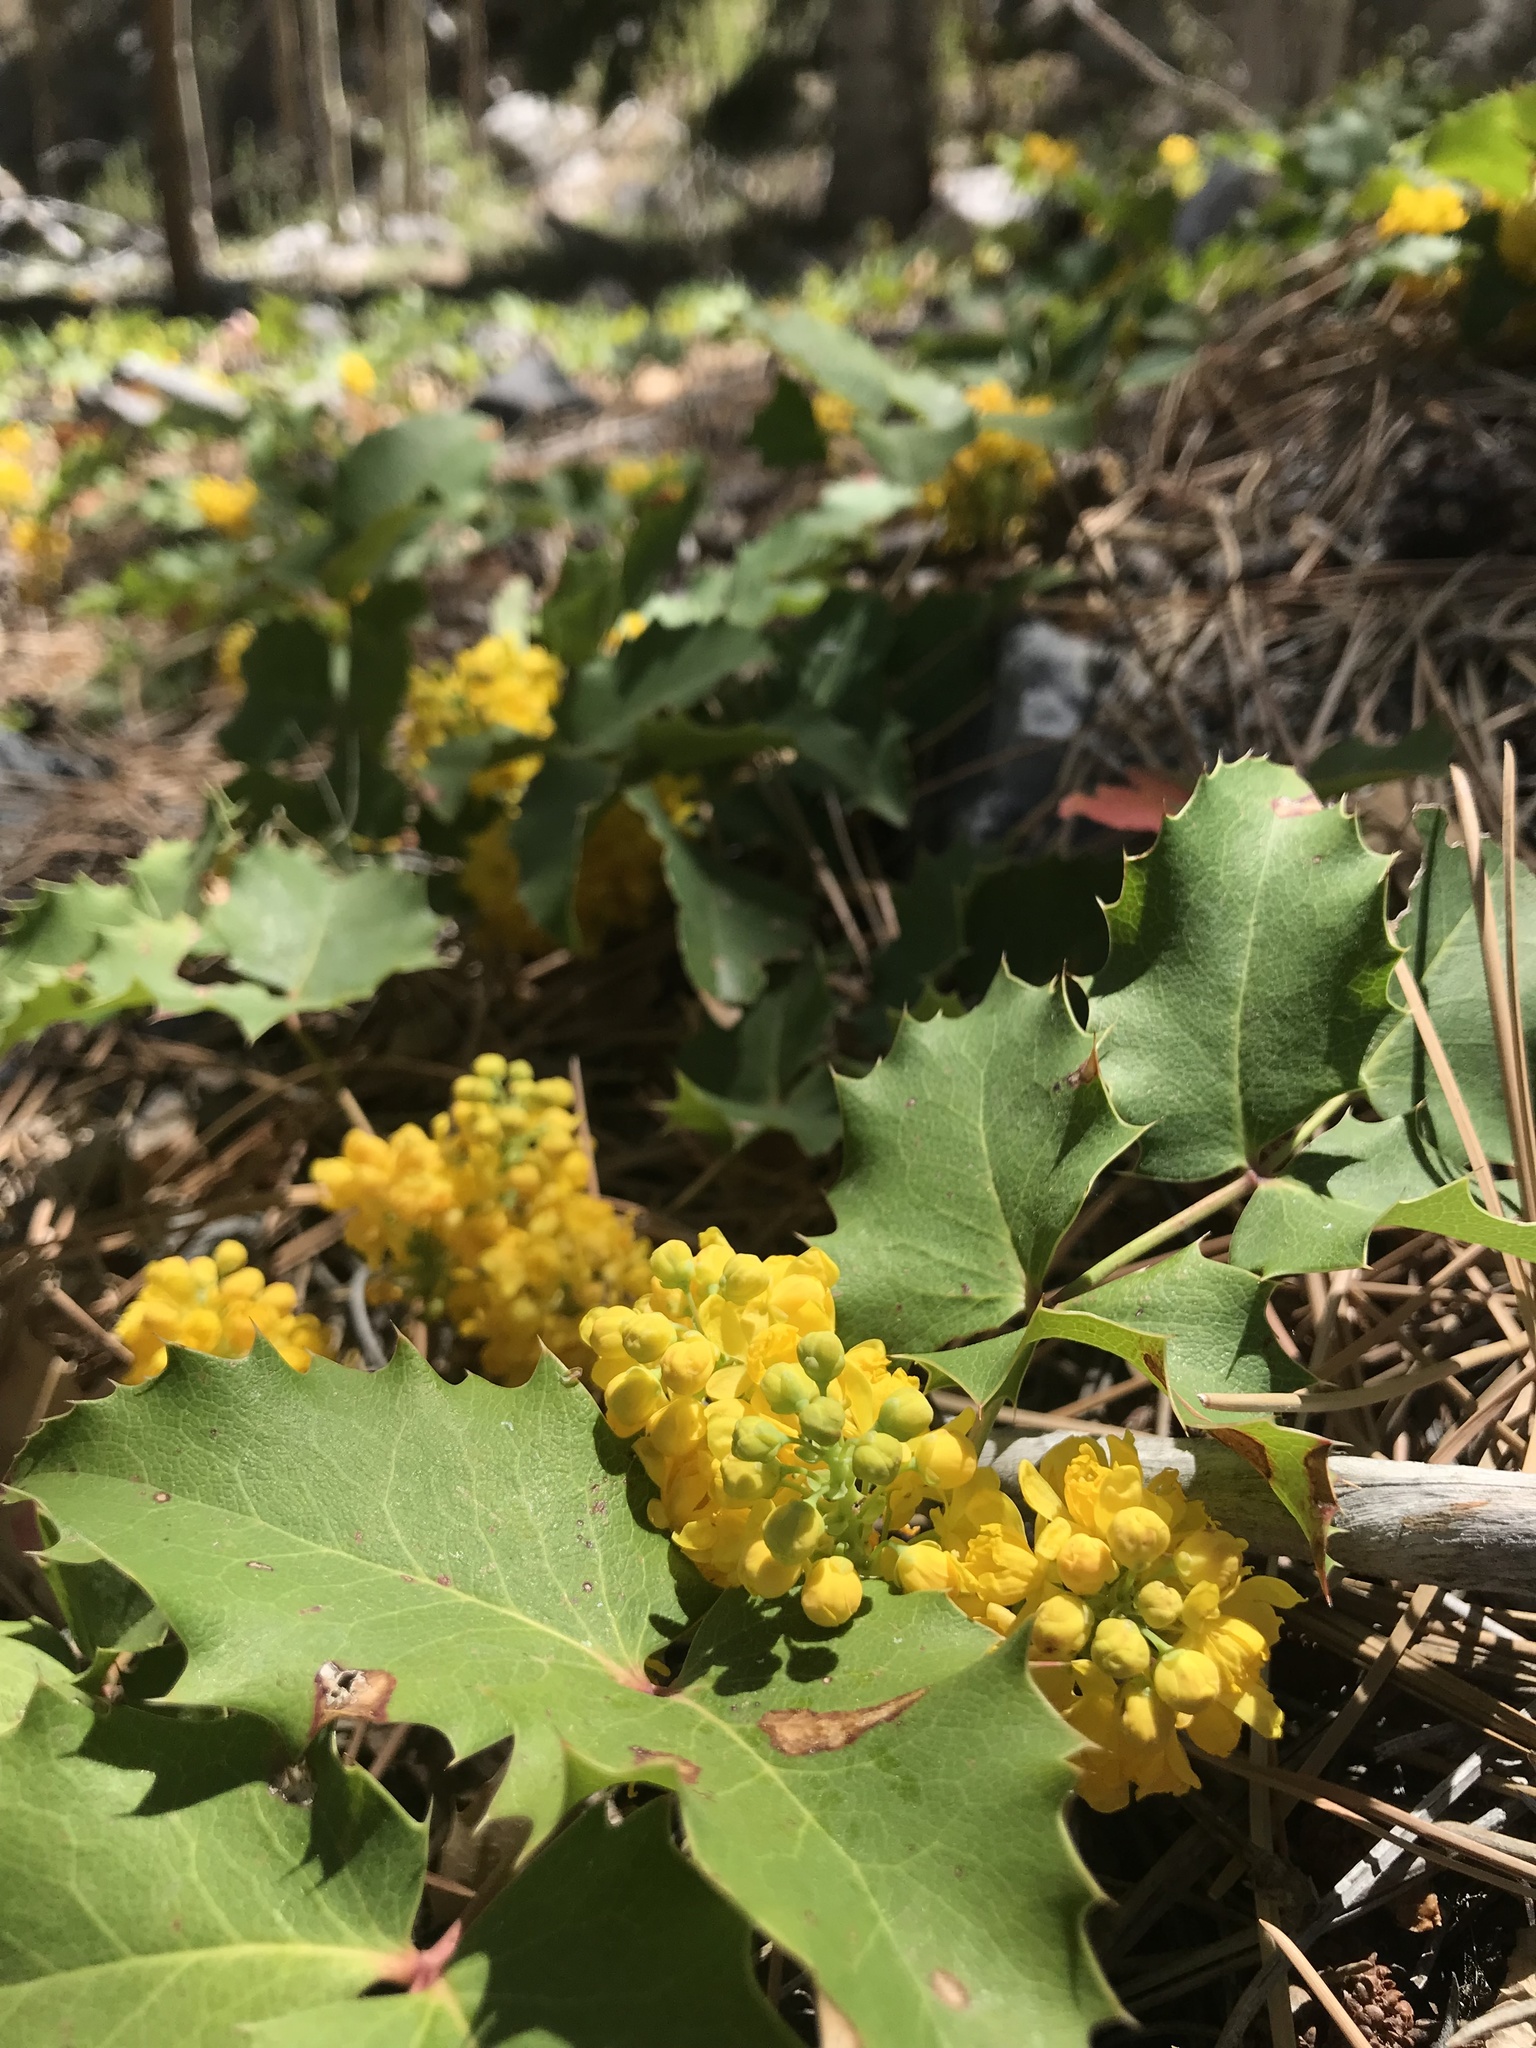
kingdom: Plantae
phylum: Tracheophyta
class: Magnoliopsida
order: Ranunculales
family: Berberidaceae
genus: Mahonia
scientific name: Mahonia repens
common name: Creeping oregon-grape
